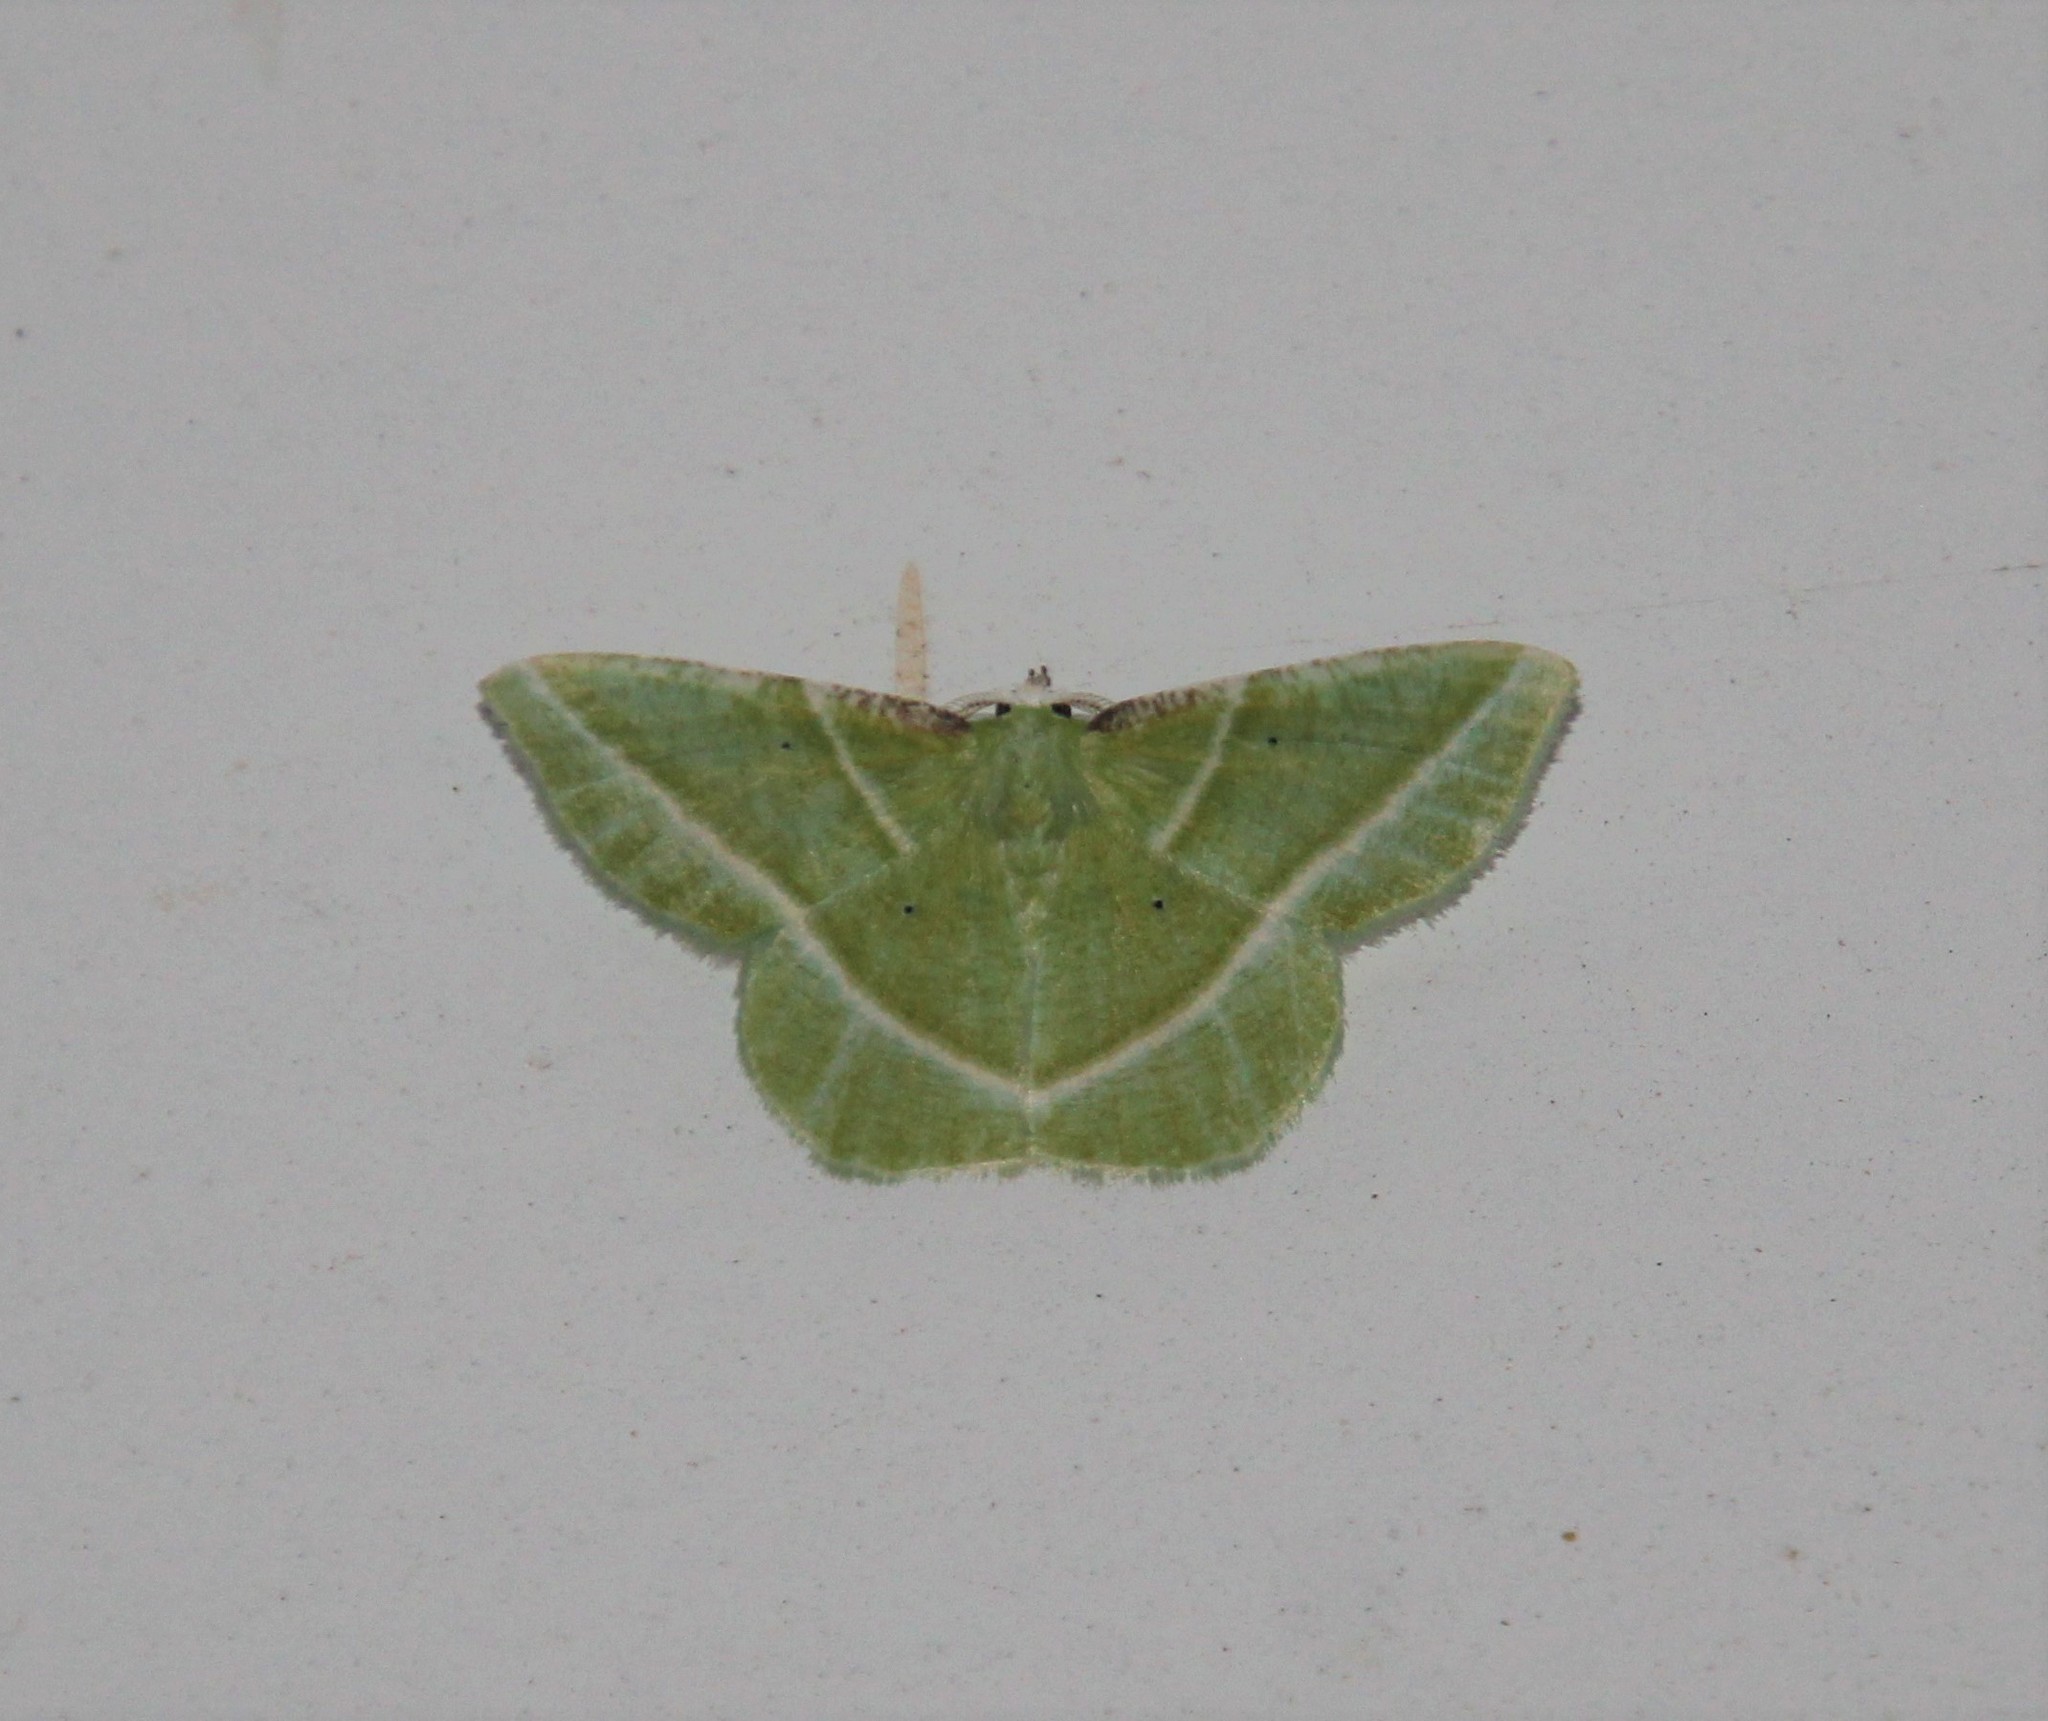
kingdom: Animalia
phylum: Arthropoda
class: Insecta
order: Lepidoptera
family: Geometridae
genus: Dichorda
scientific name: Dichorda iridaria
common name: Showy emerald
